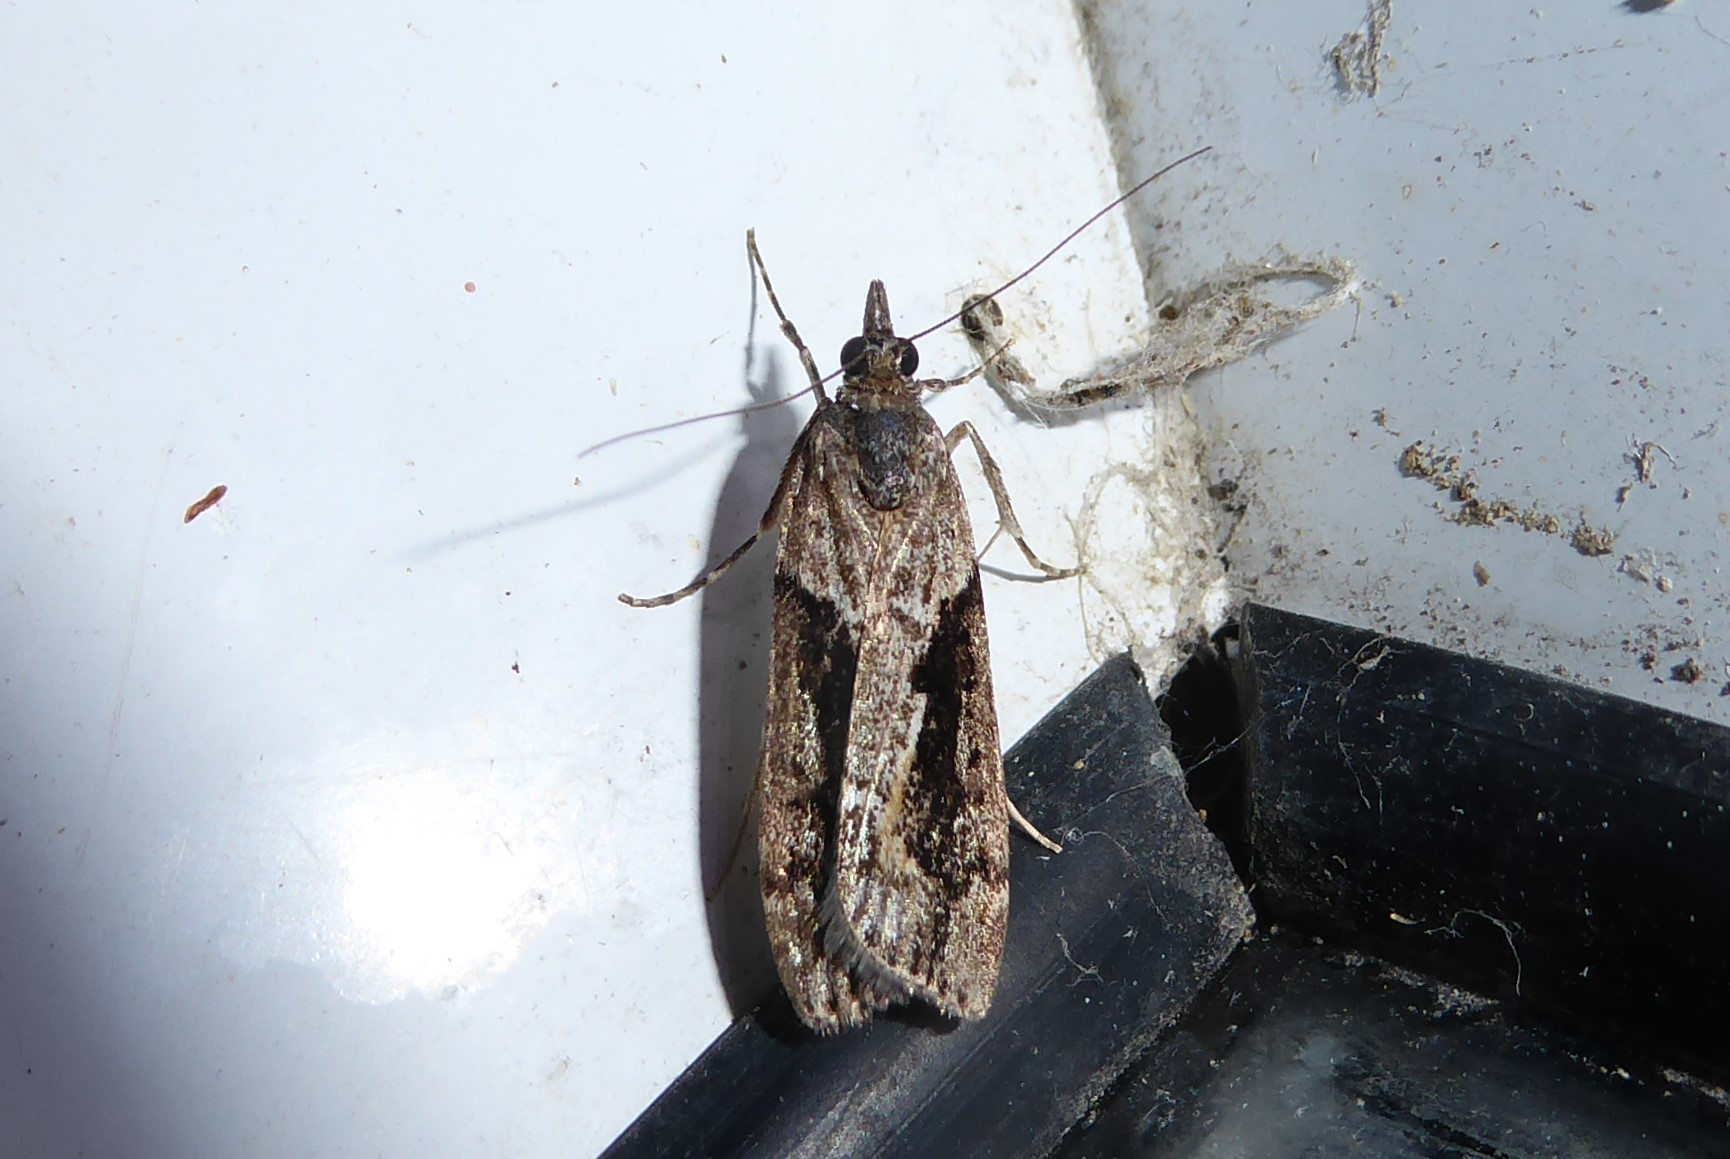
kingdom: Animalia
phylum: Arthropoda
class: Insecta
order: Lepidoptera
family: Crambidae
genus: Eudonia
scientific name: Eudonia submarginalis
